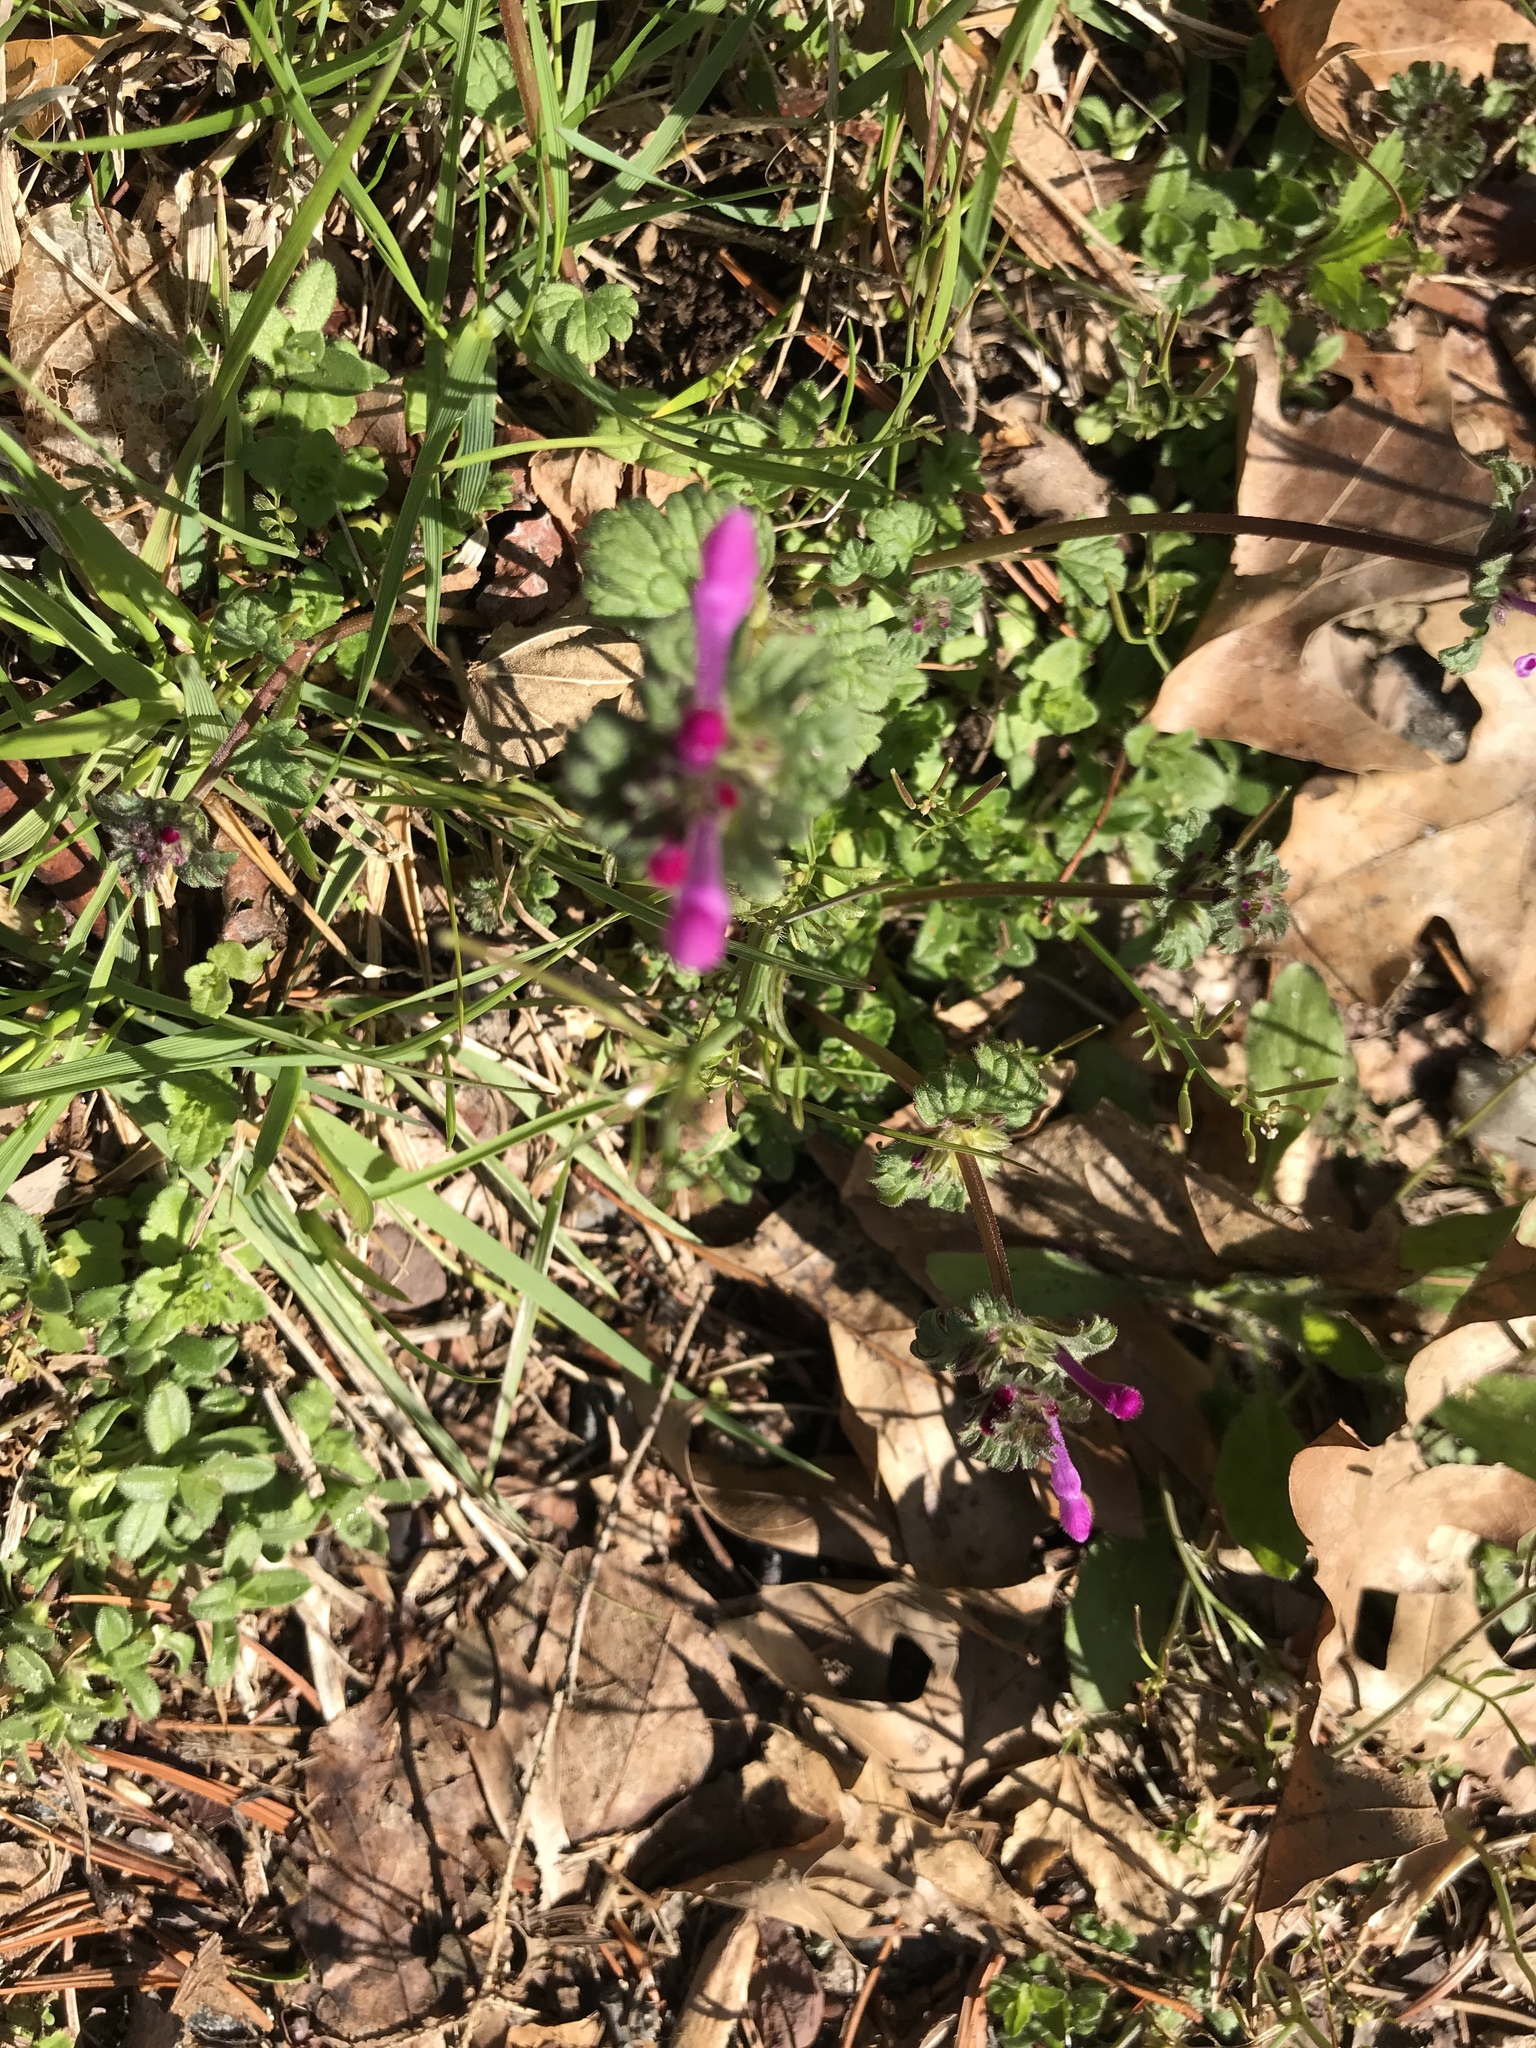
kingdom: Plantae
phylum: Tracheophyta
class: Magnoliopsida
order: Lamiales
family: Lamiaceae
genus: Lamium
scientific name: Lamium amplexicaule
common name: Henbit dead-nettle
